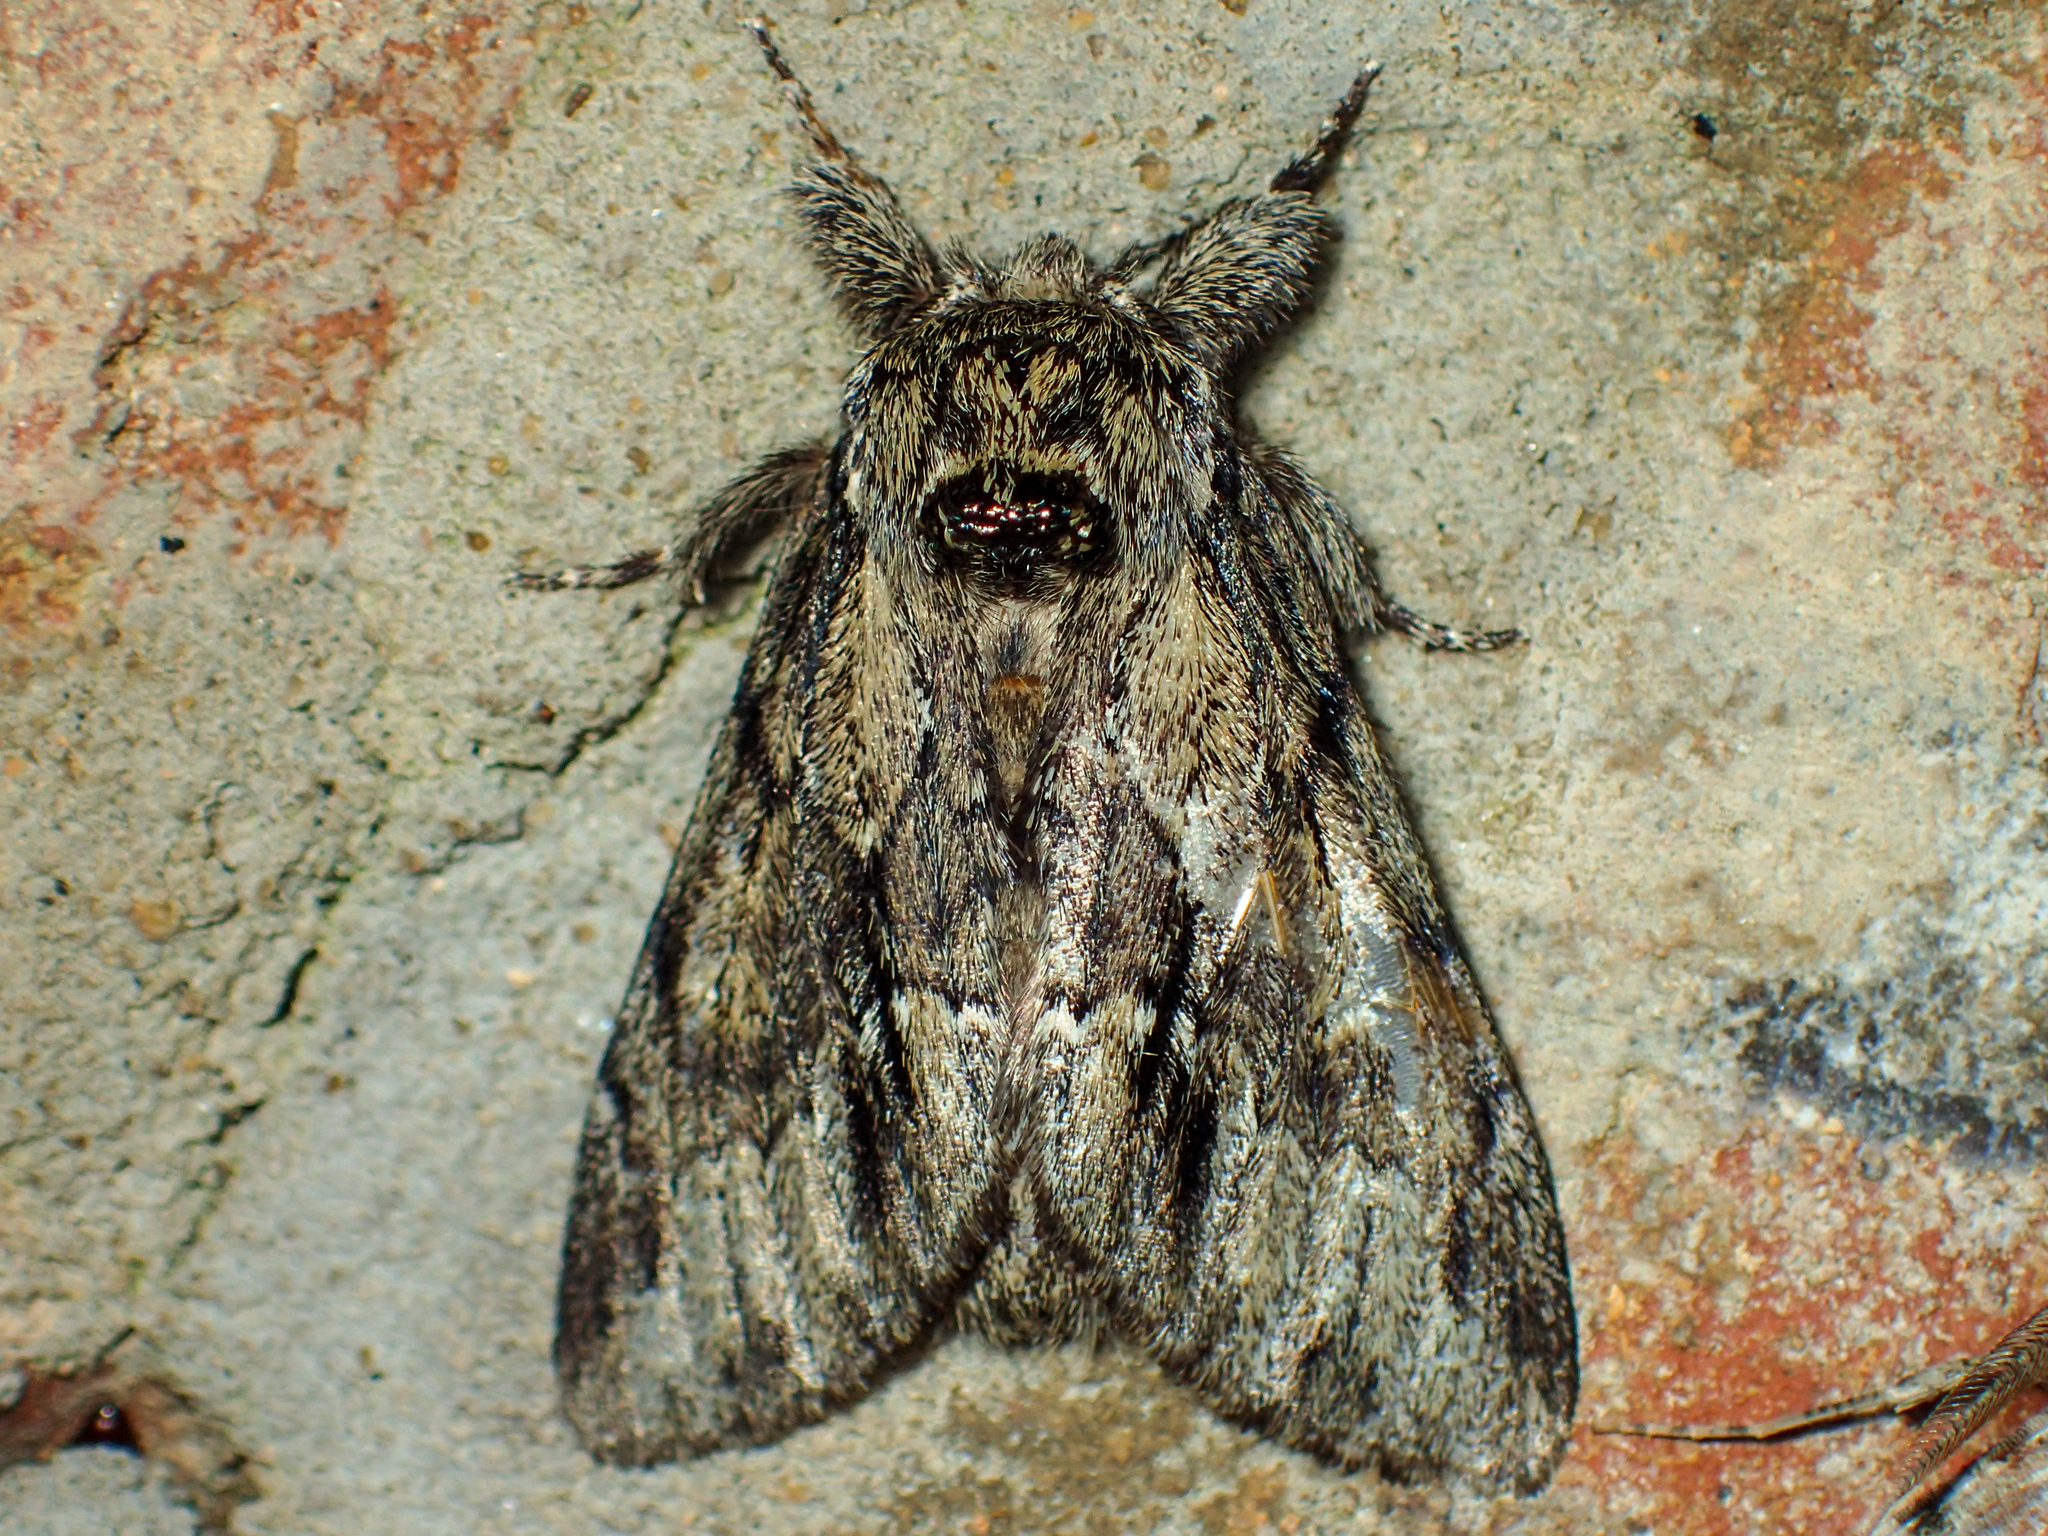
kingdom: Animalia
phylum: Arthropoda
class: Insecta
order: Lepidoptera
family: Notodontidae
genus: Paraeschra
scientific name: Paraeschra georgica
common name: Georgian prominent
